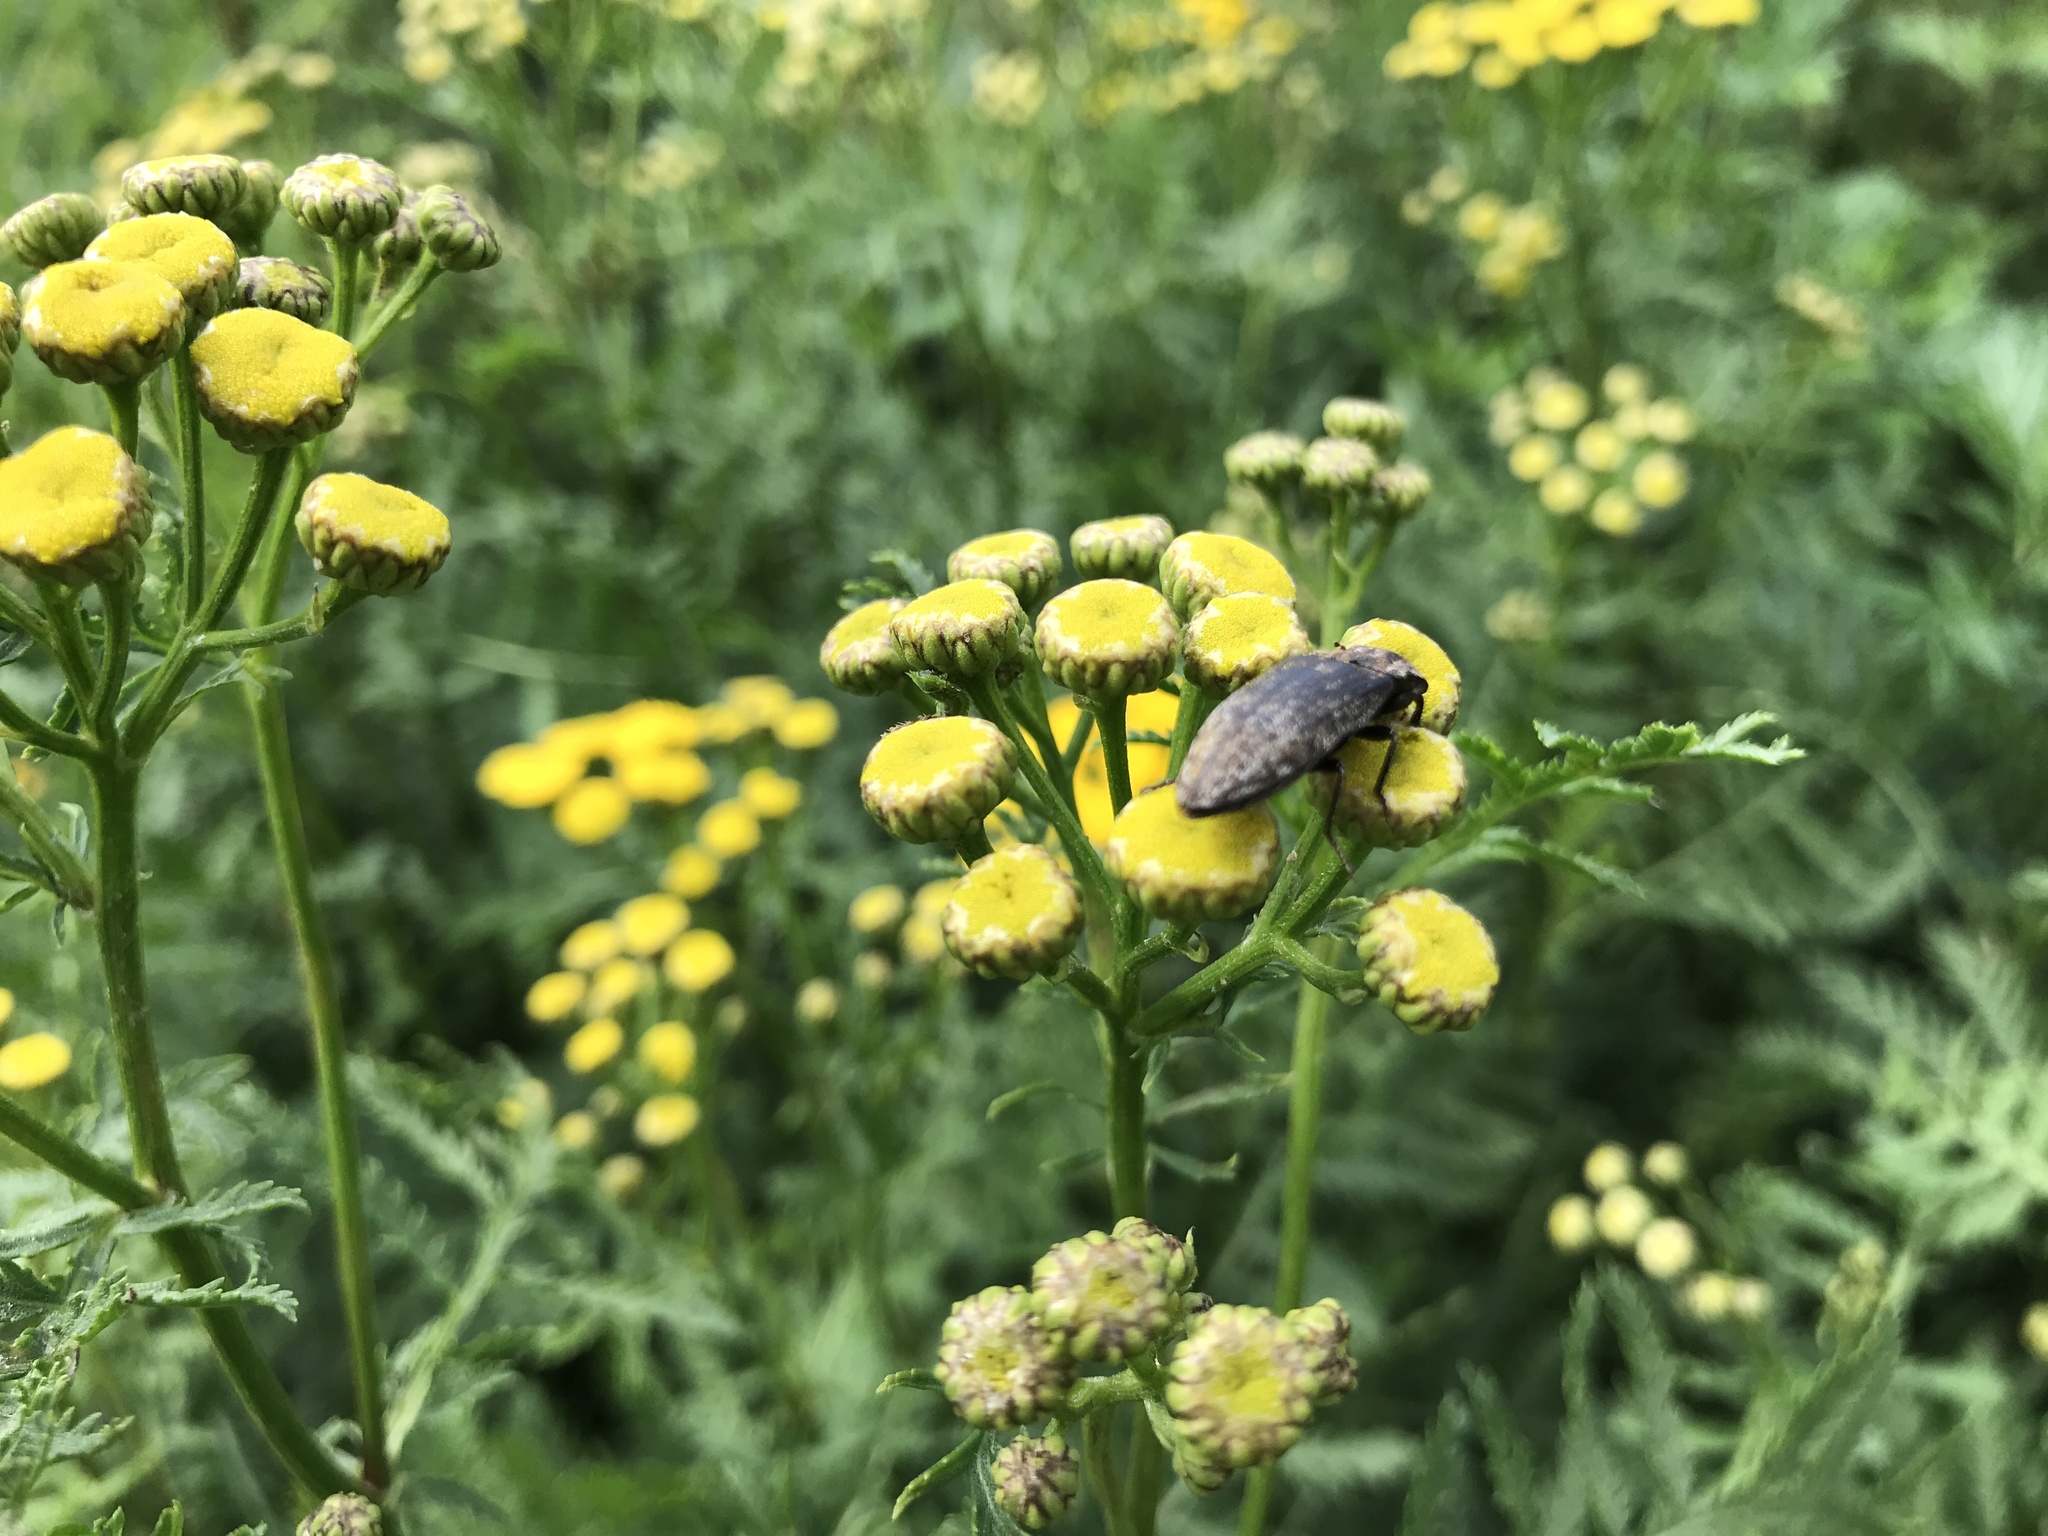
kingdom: Animalia
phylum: Arthropoda
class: Insecta
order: Coleoptera
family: Elateridae
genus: Agrypnus
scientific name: Agrypnus murinus
